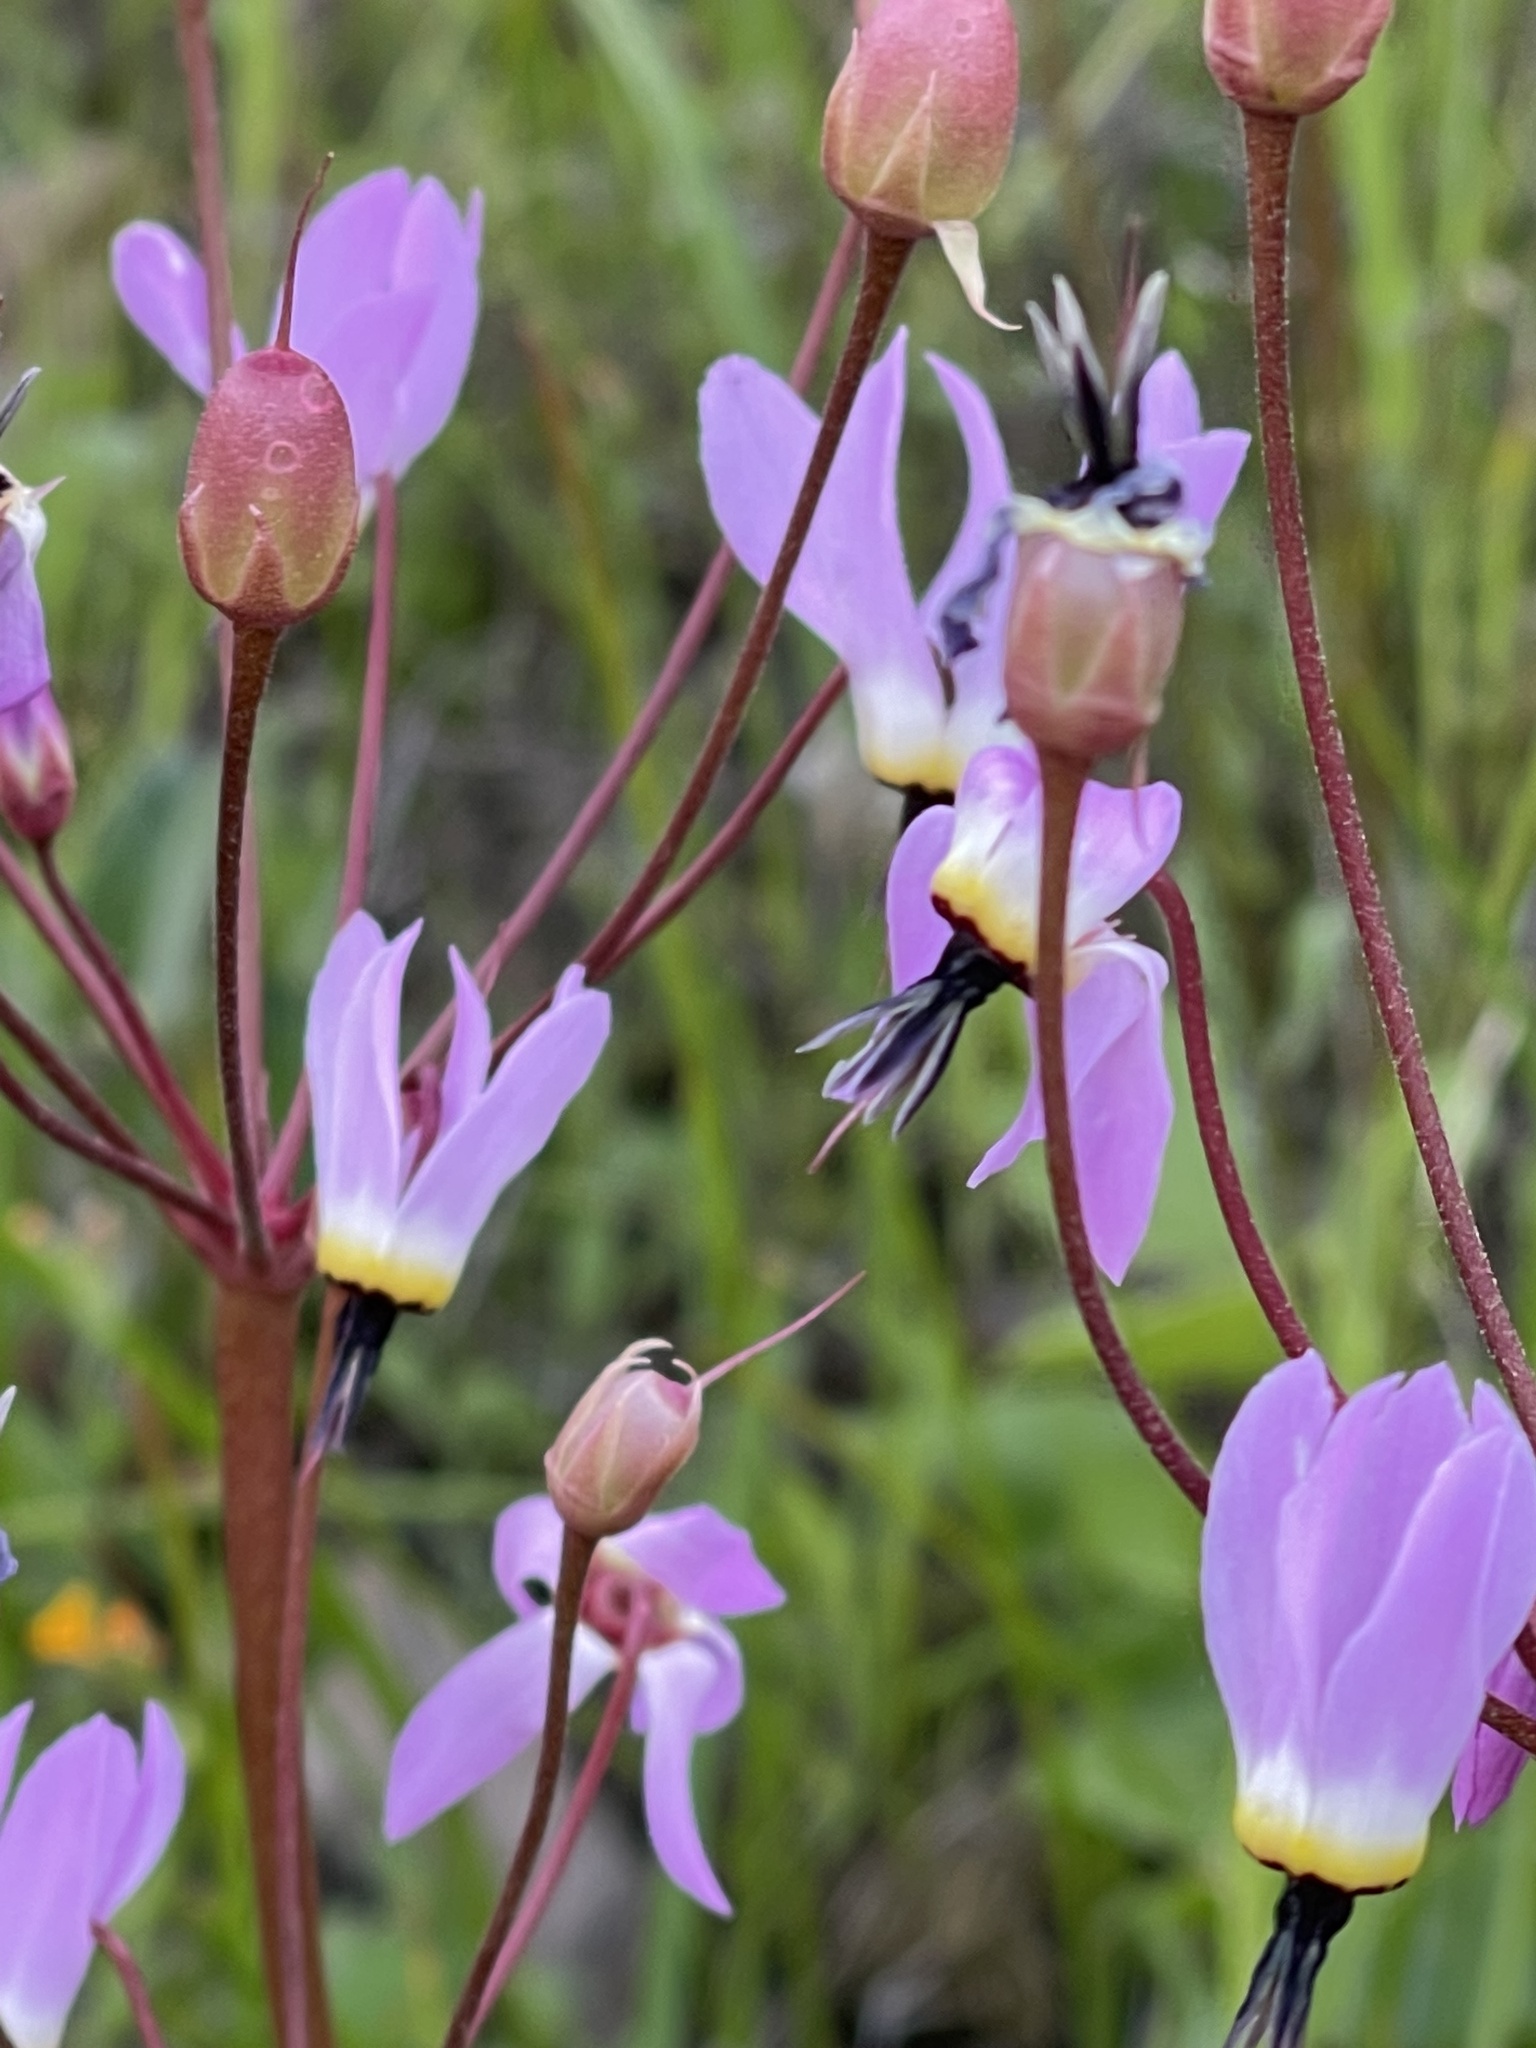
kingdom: Plantae
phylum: Tracheophyta
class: Magnoliopsida
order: Ericales
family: Primulaceae
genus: Dodecatheon
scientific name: Dodecatheon hendersonii
